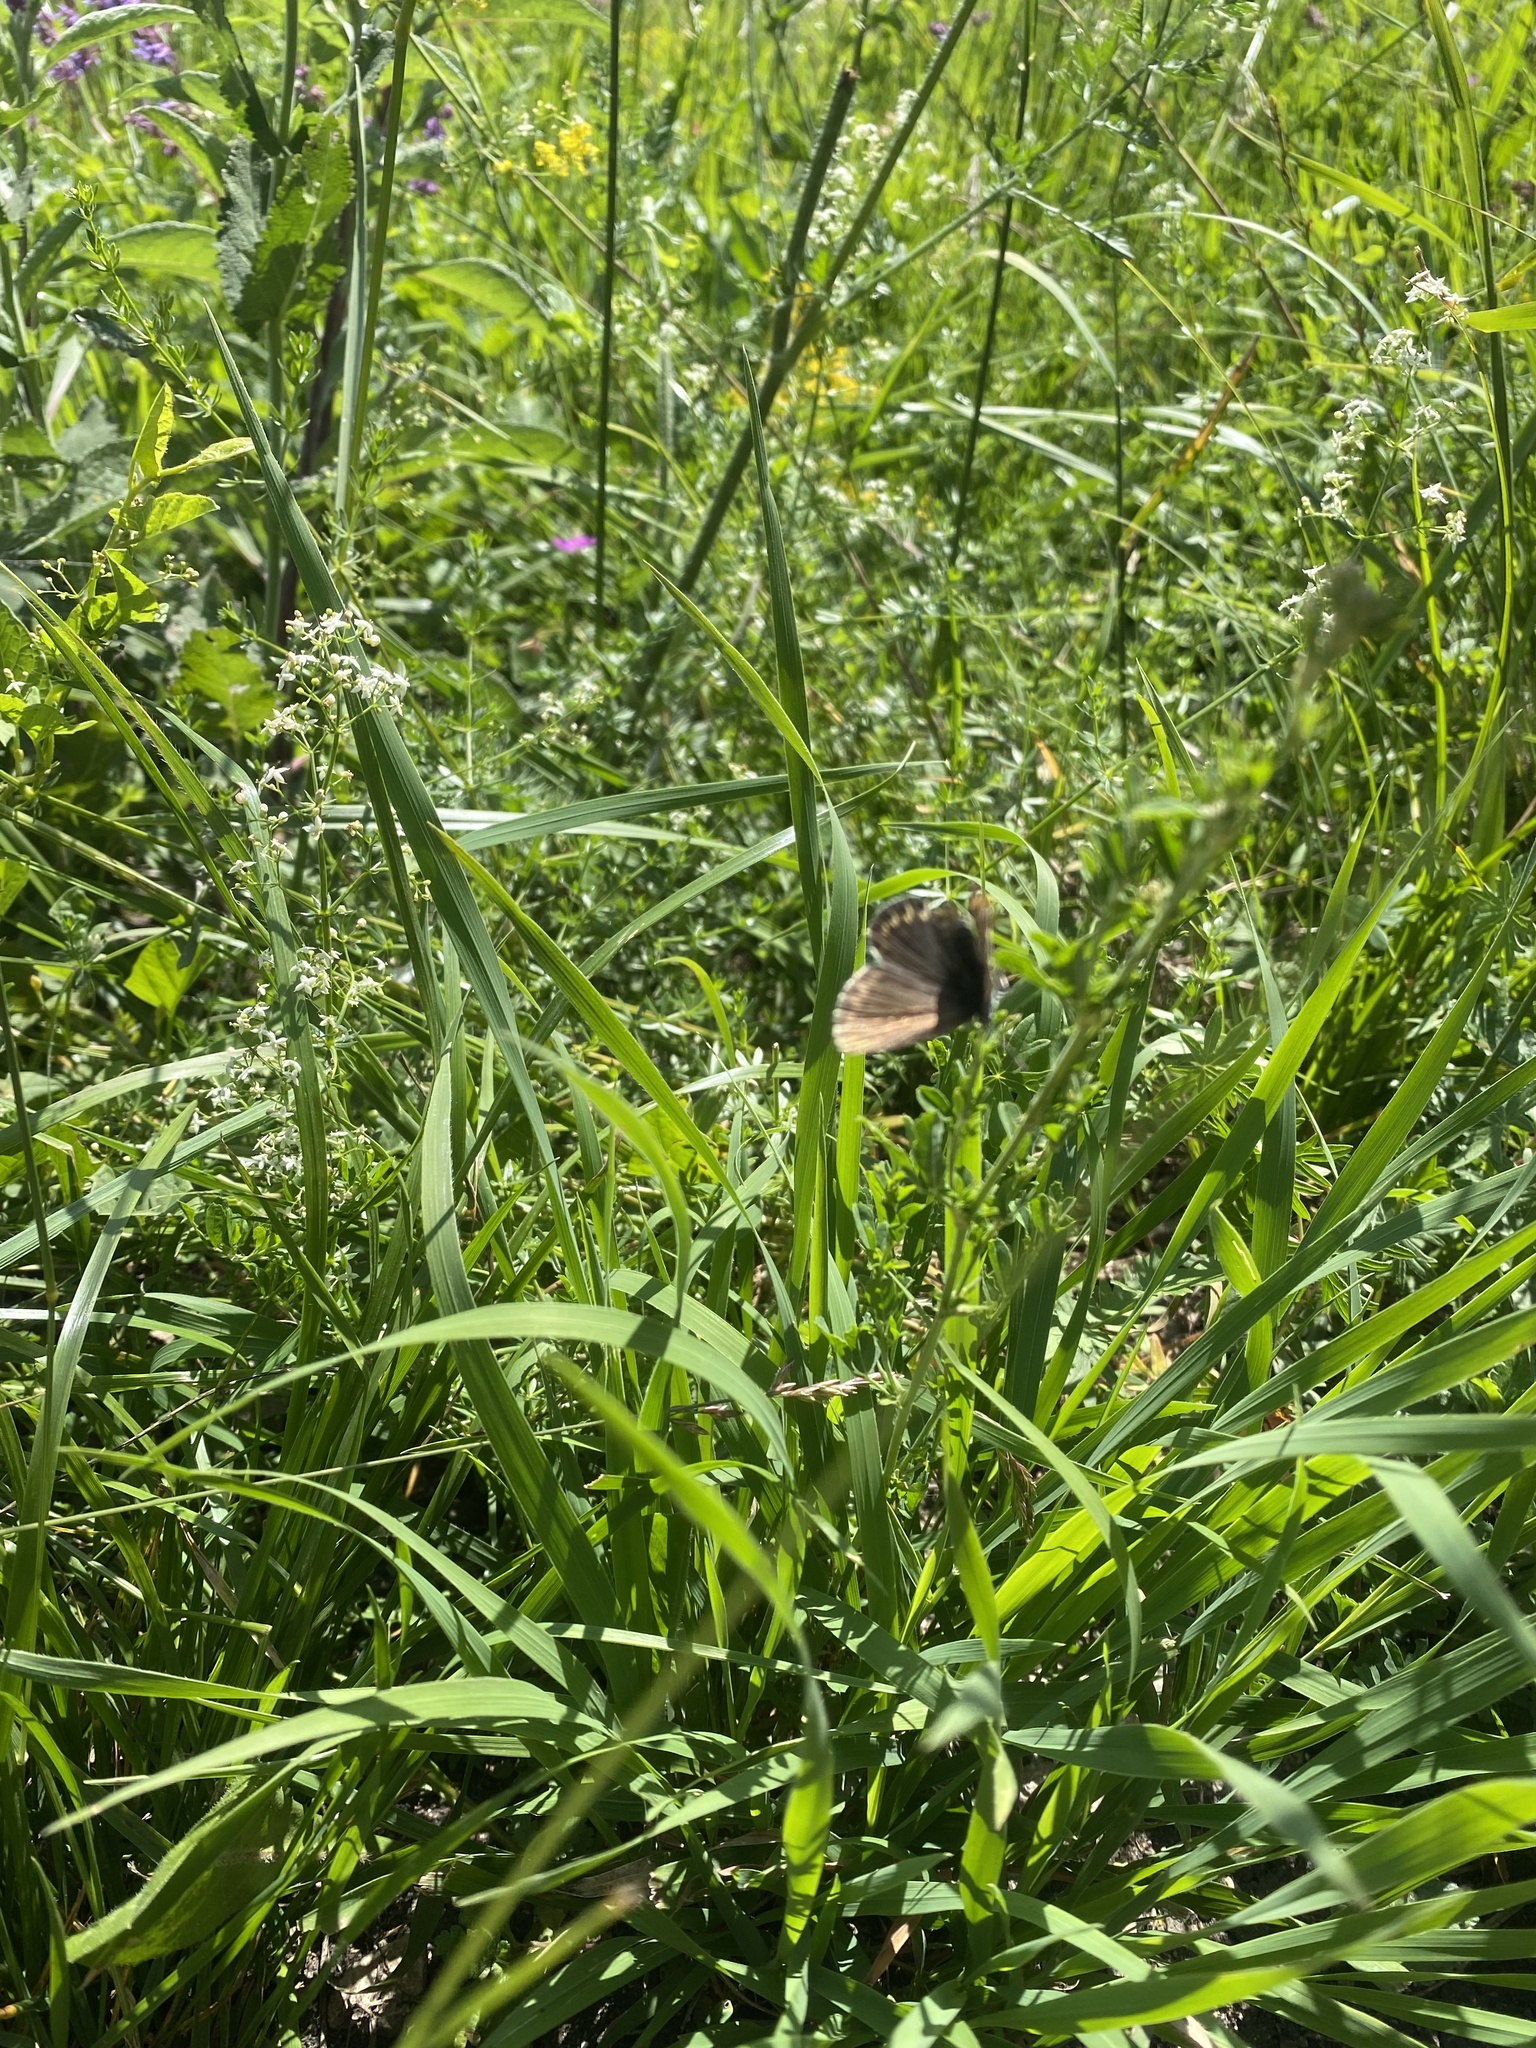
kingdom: Animalia
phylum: Arthropoda
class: Insecta
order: Lepidoptera
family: Lycaenidae
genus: Plebejus
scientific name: Plebejus
